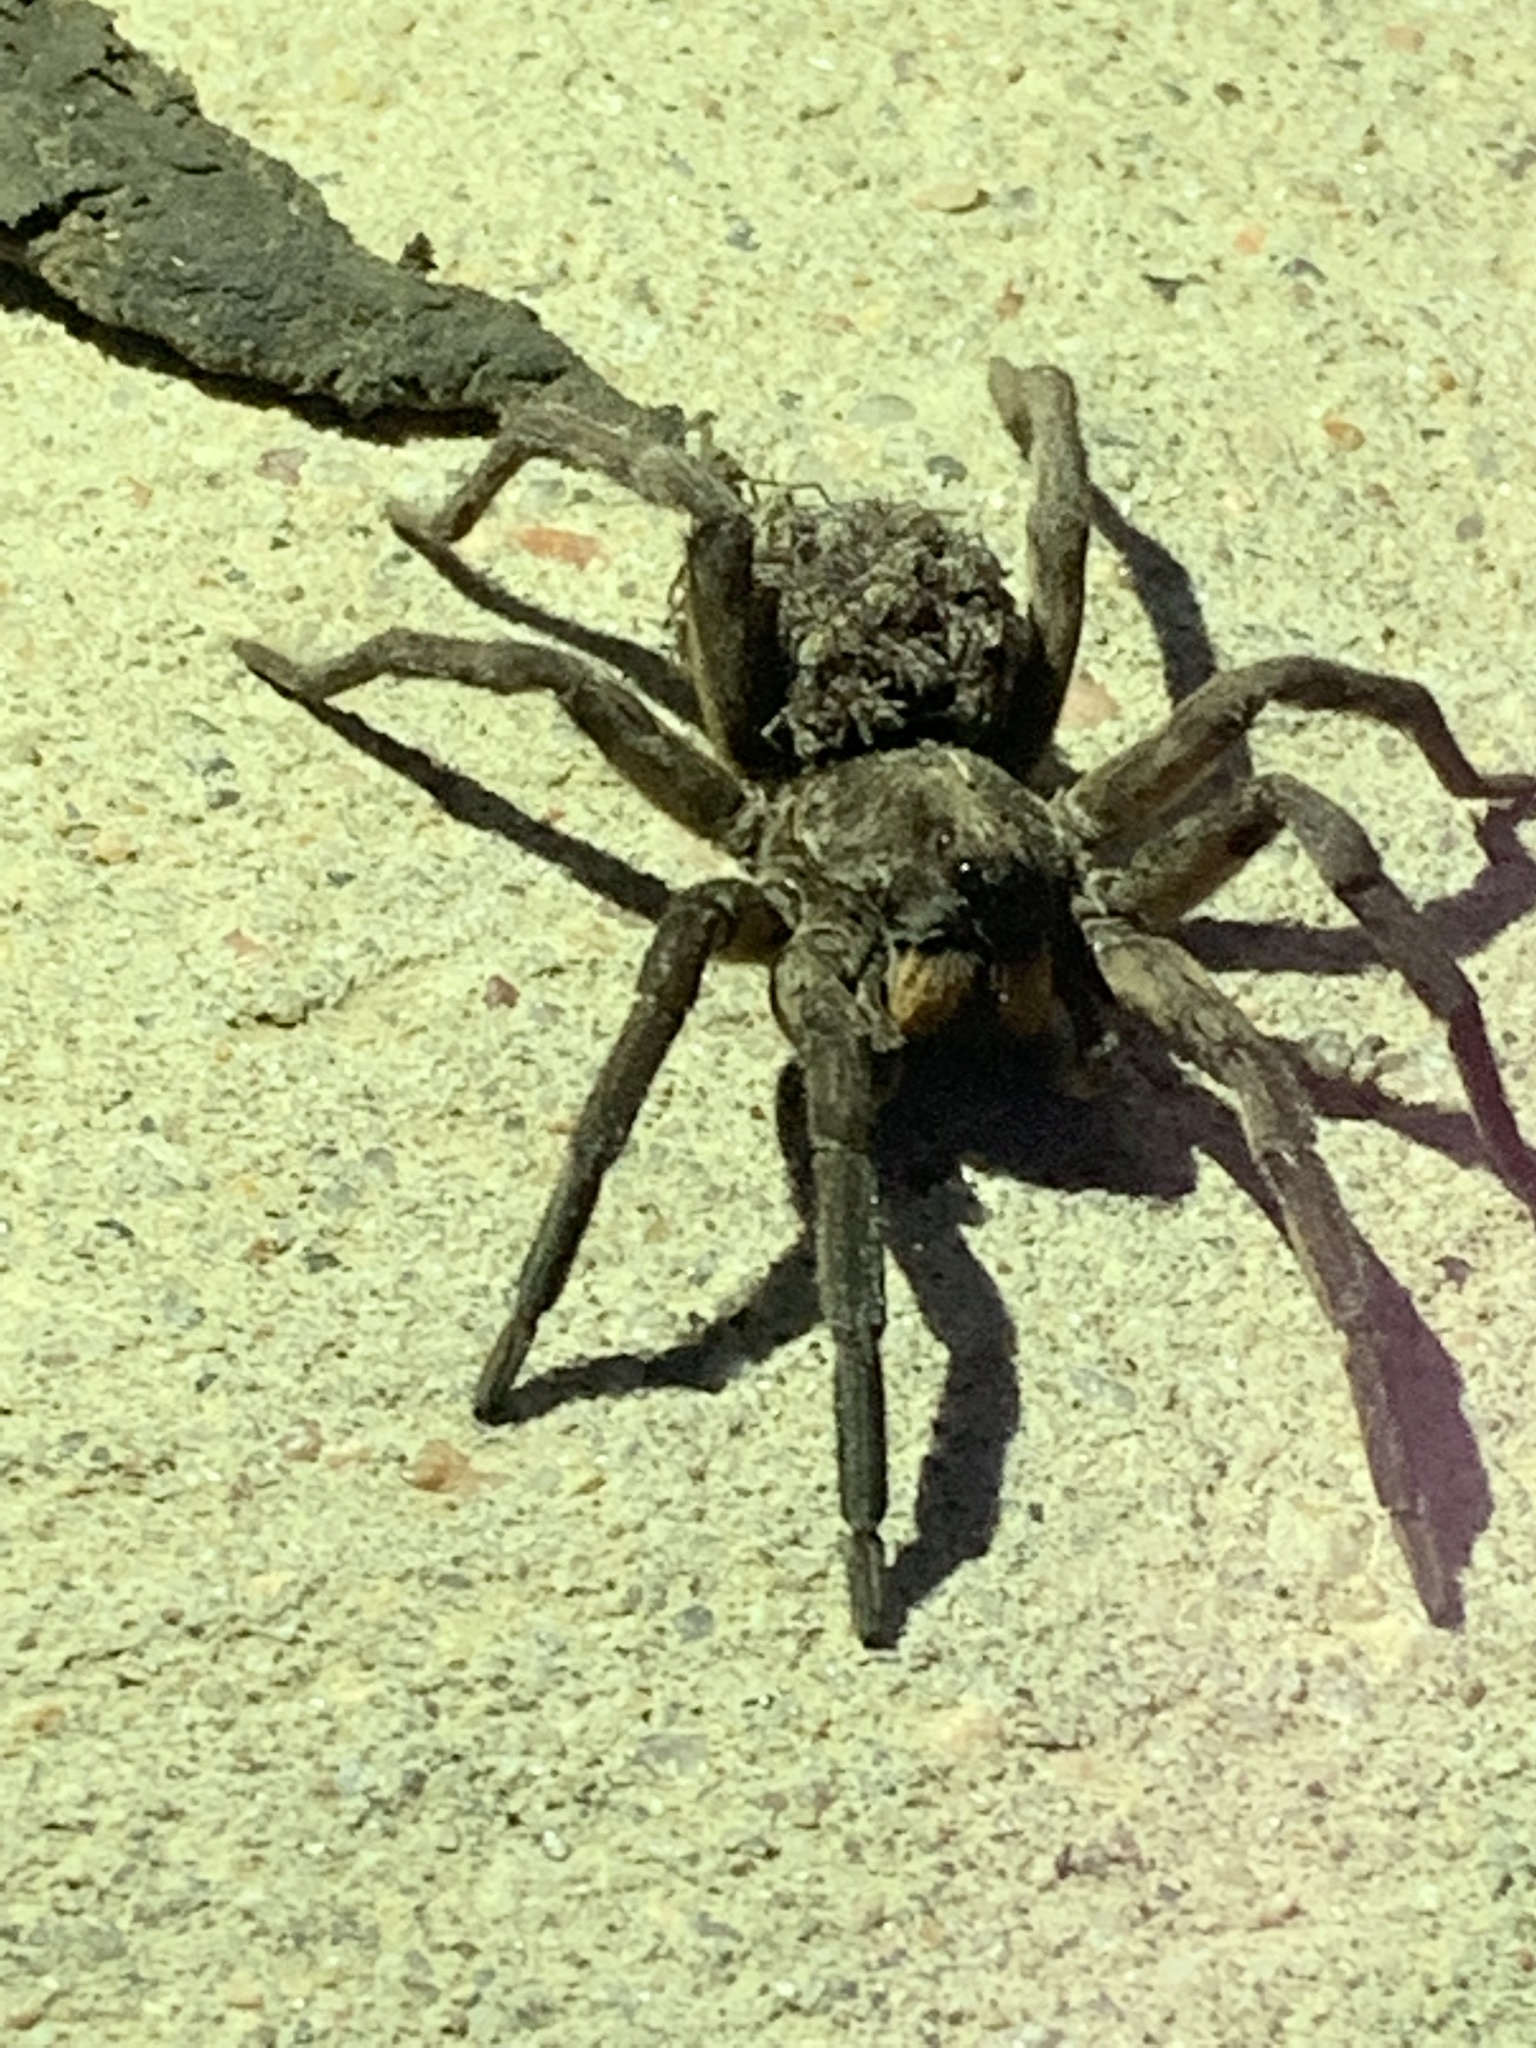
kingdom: Animalia
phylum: Arthropoda
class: Arachnida
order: Araneae
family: Lycosidae
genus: Hogna
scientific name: Hogna carolinensis
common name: Carolina wolf spider
